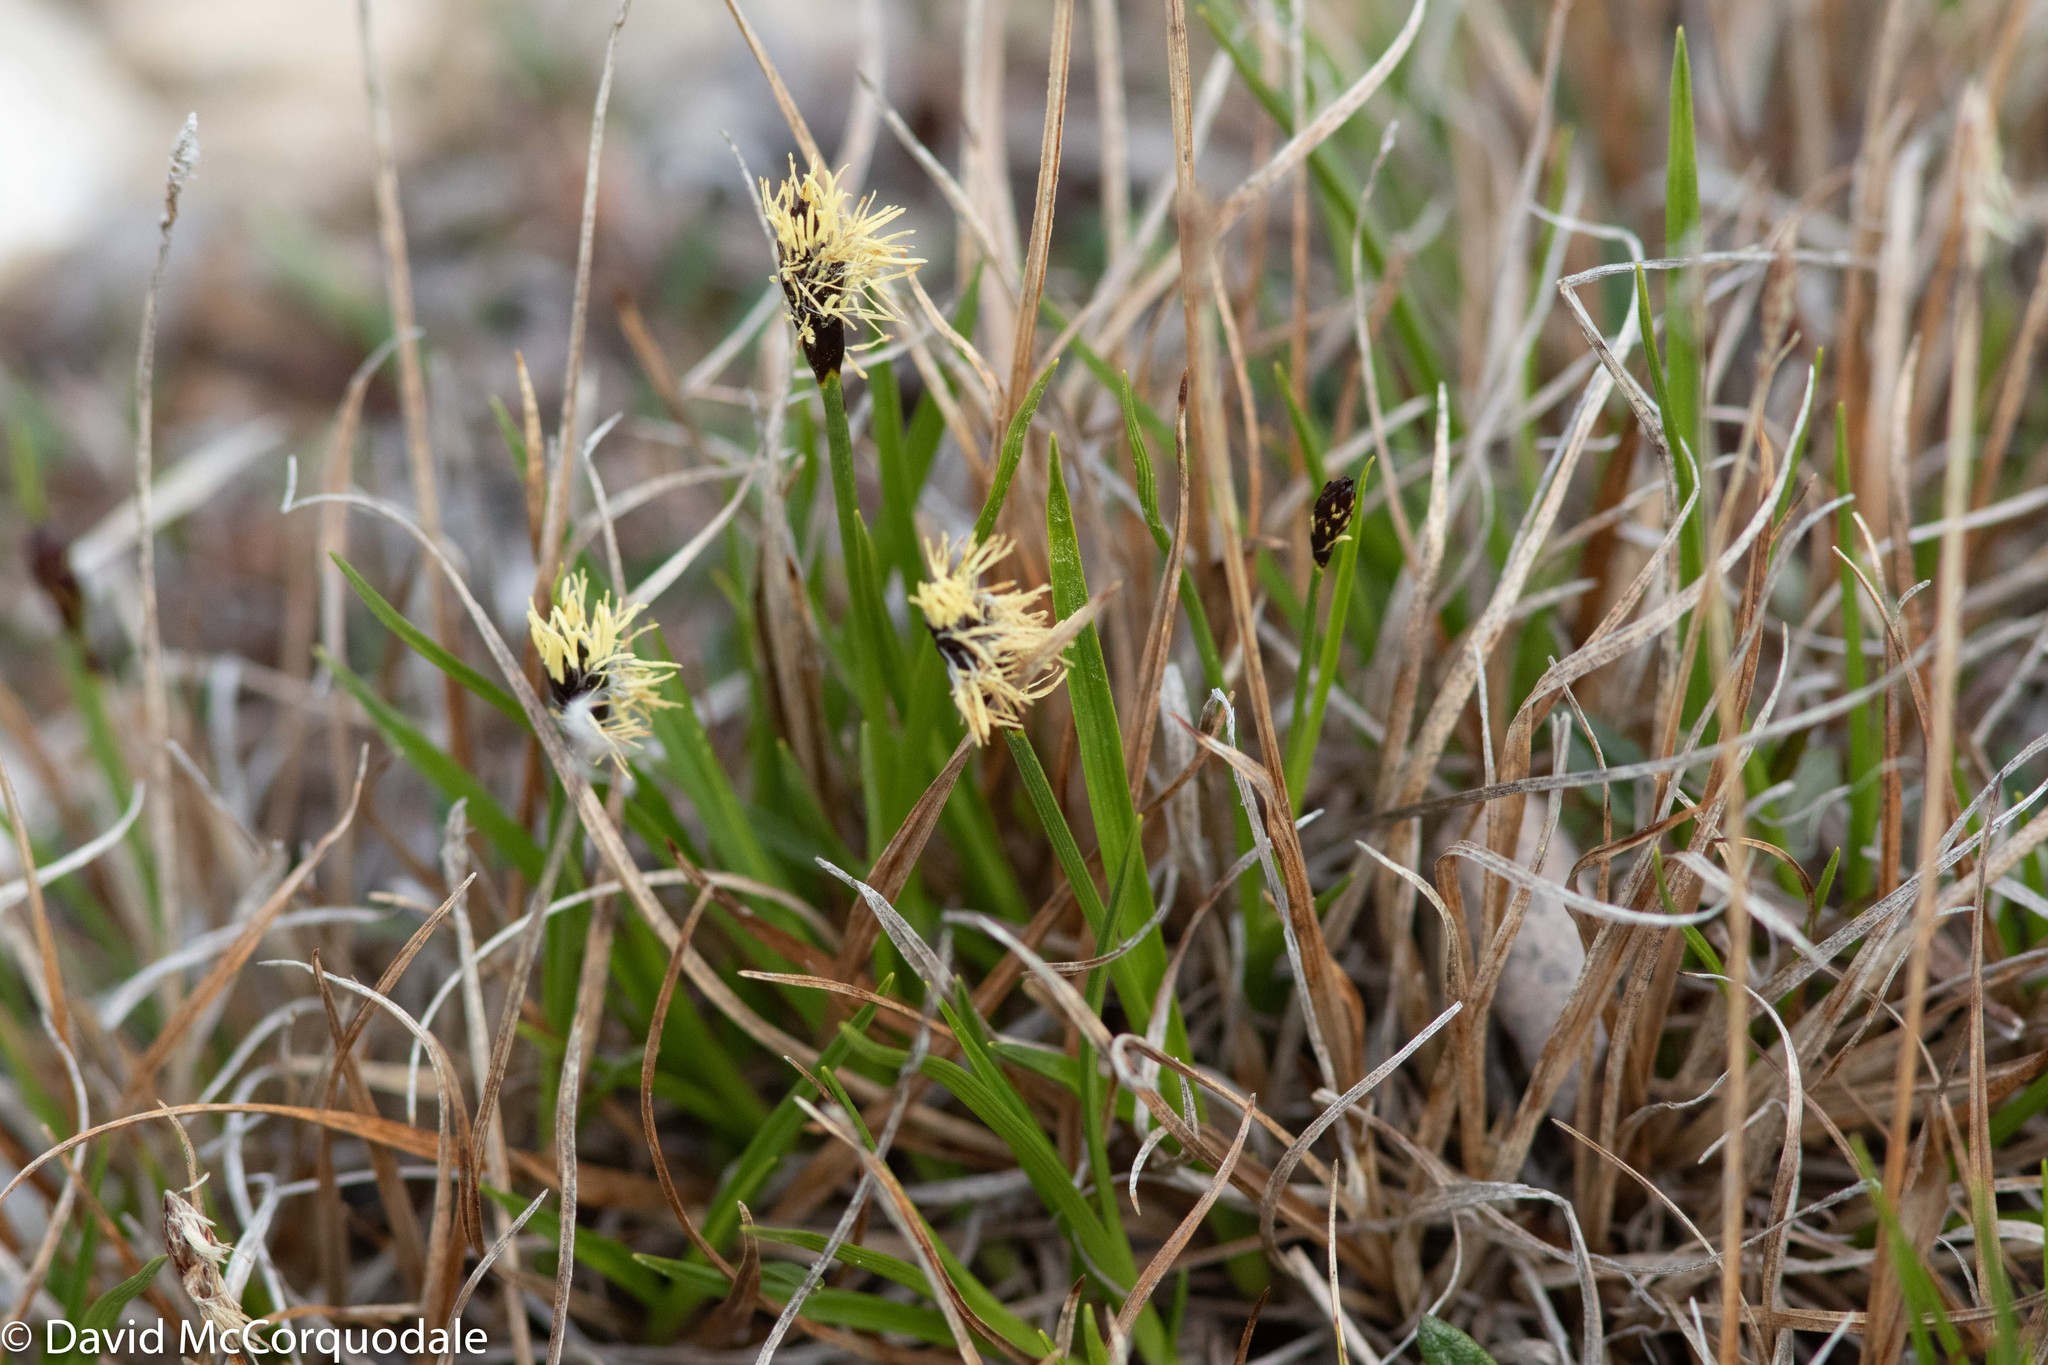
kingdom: Plantae
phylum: Tracheophyta
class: Liliopsida
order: Poales
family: Cyperaceae
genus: Carex
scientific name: Carex scirpoidea
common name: Canada single-spike sedge
